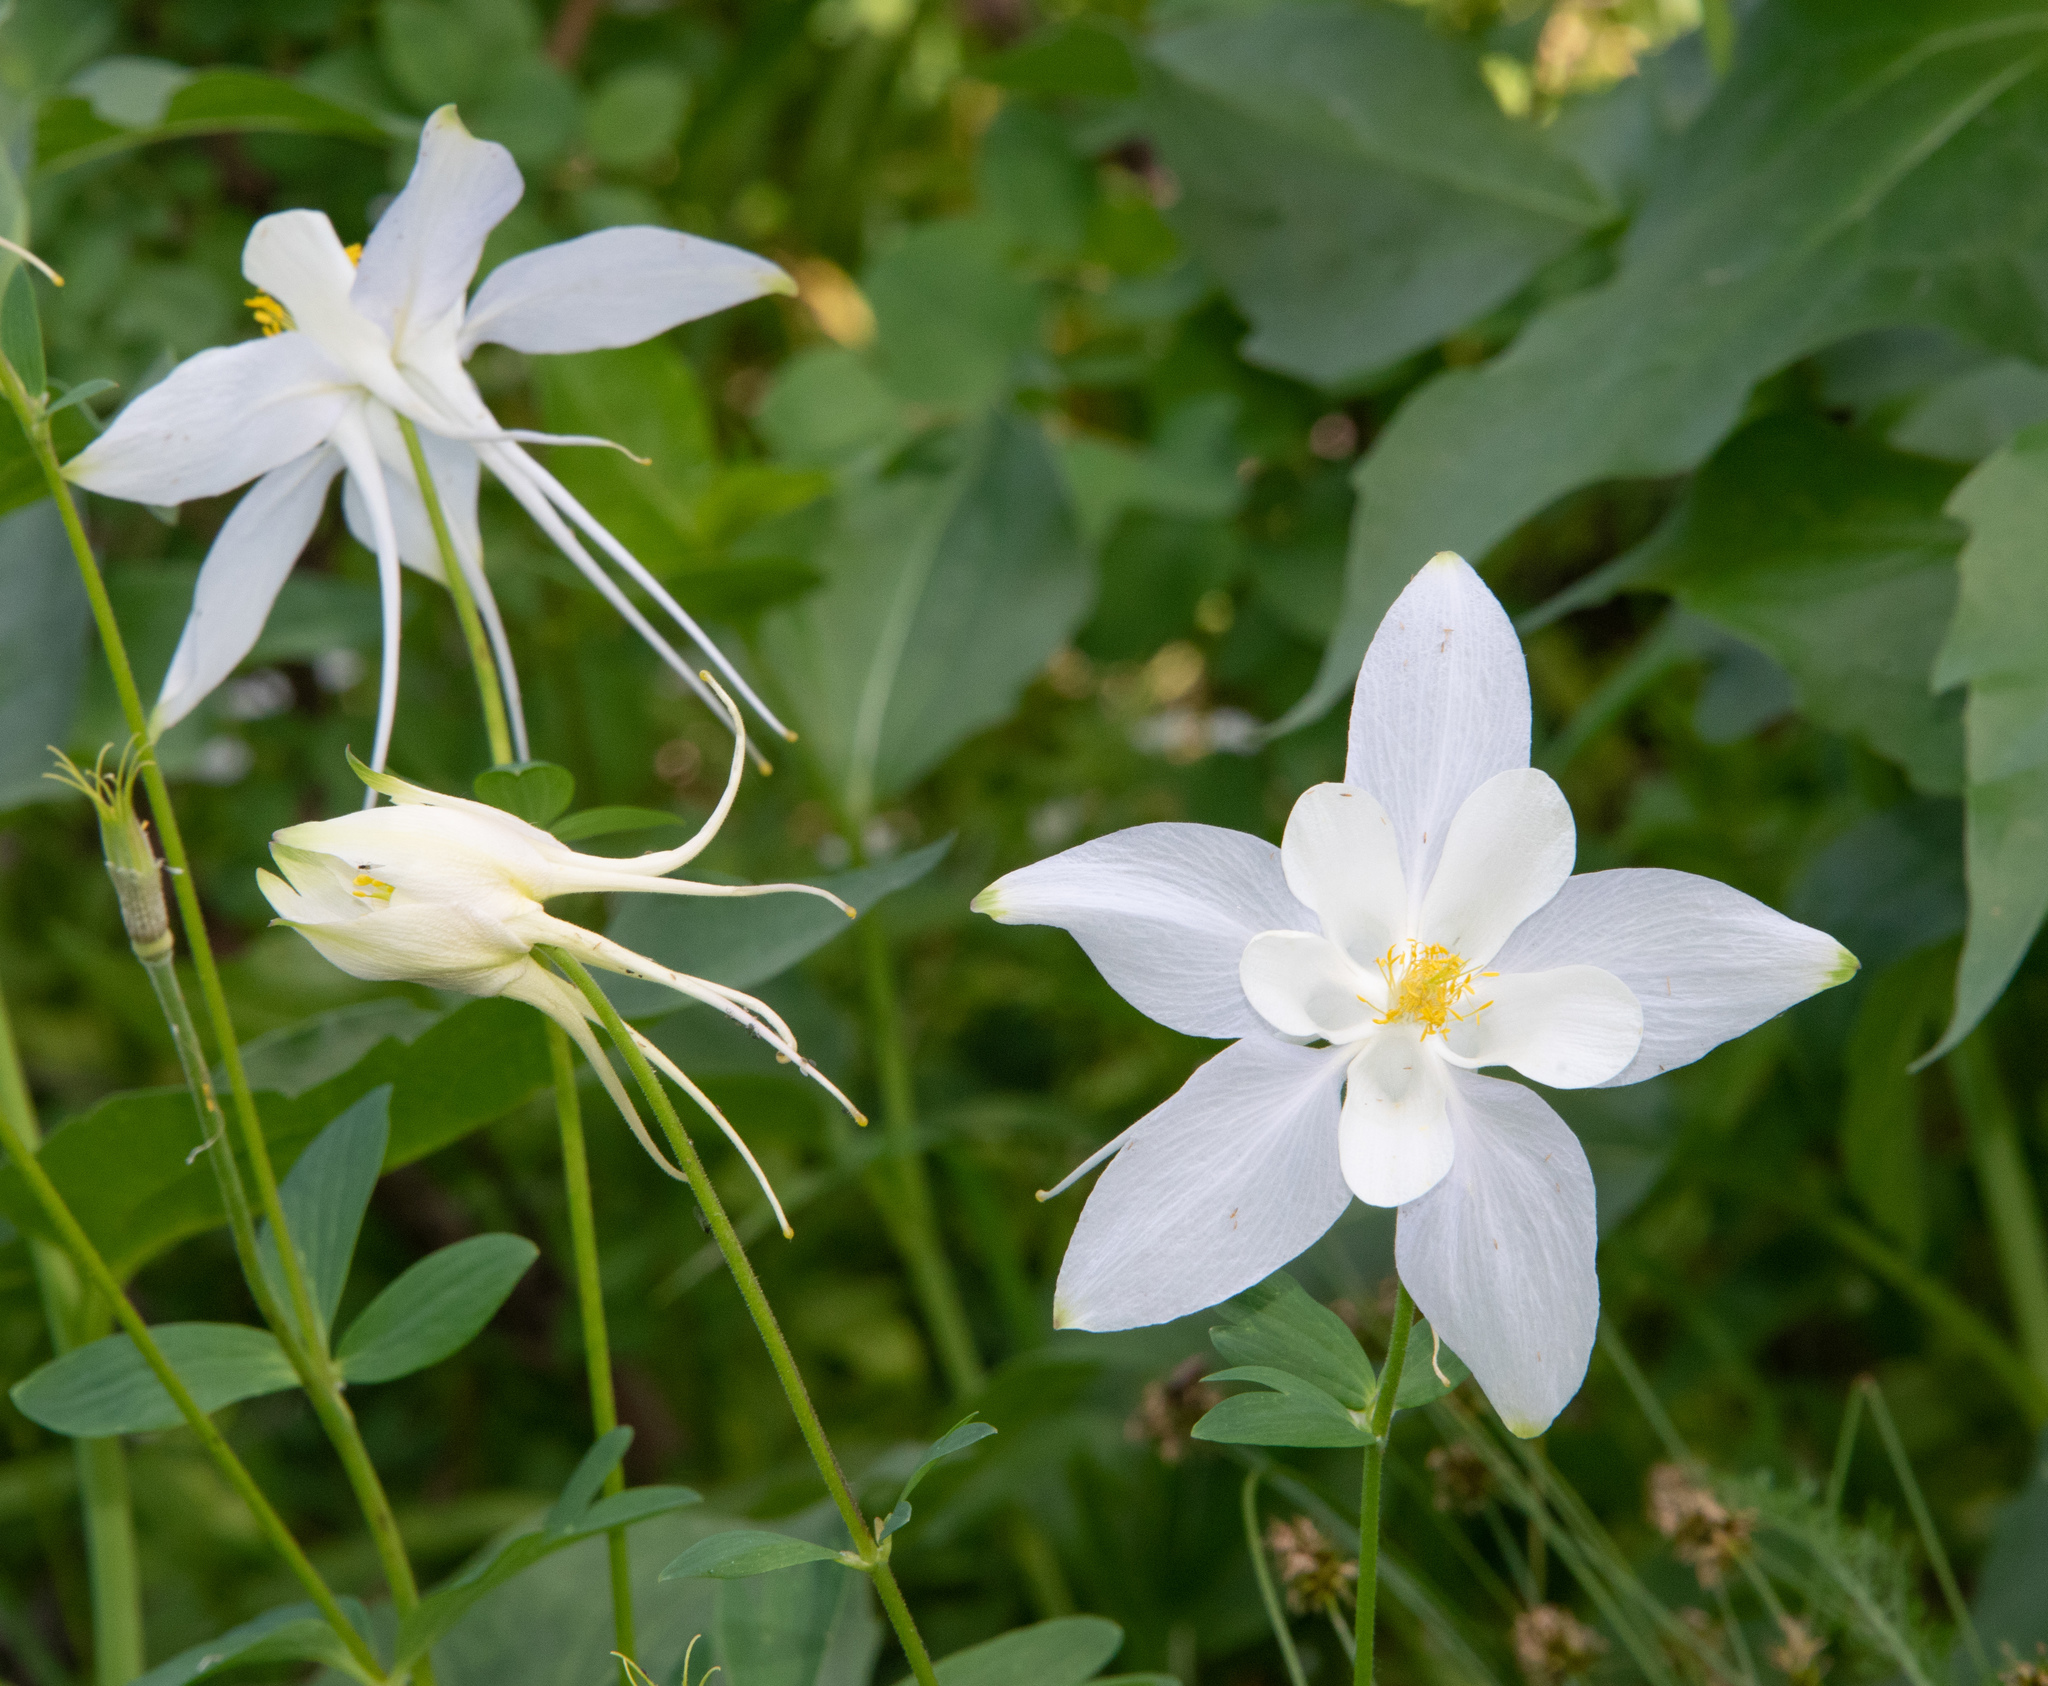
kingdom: Plantae
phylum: Tracheophyta
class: Magnoliopsida
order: Ranunculales
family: Ranunculaceae
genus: Aquilegia
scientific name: Aquilegia coerulea
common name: Rocky mountain columbine
